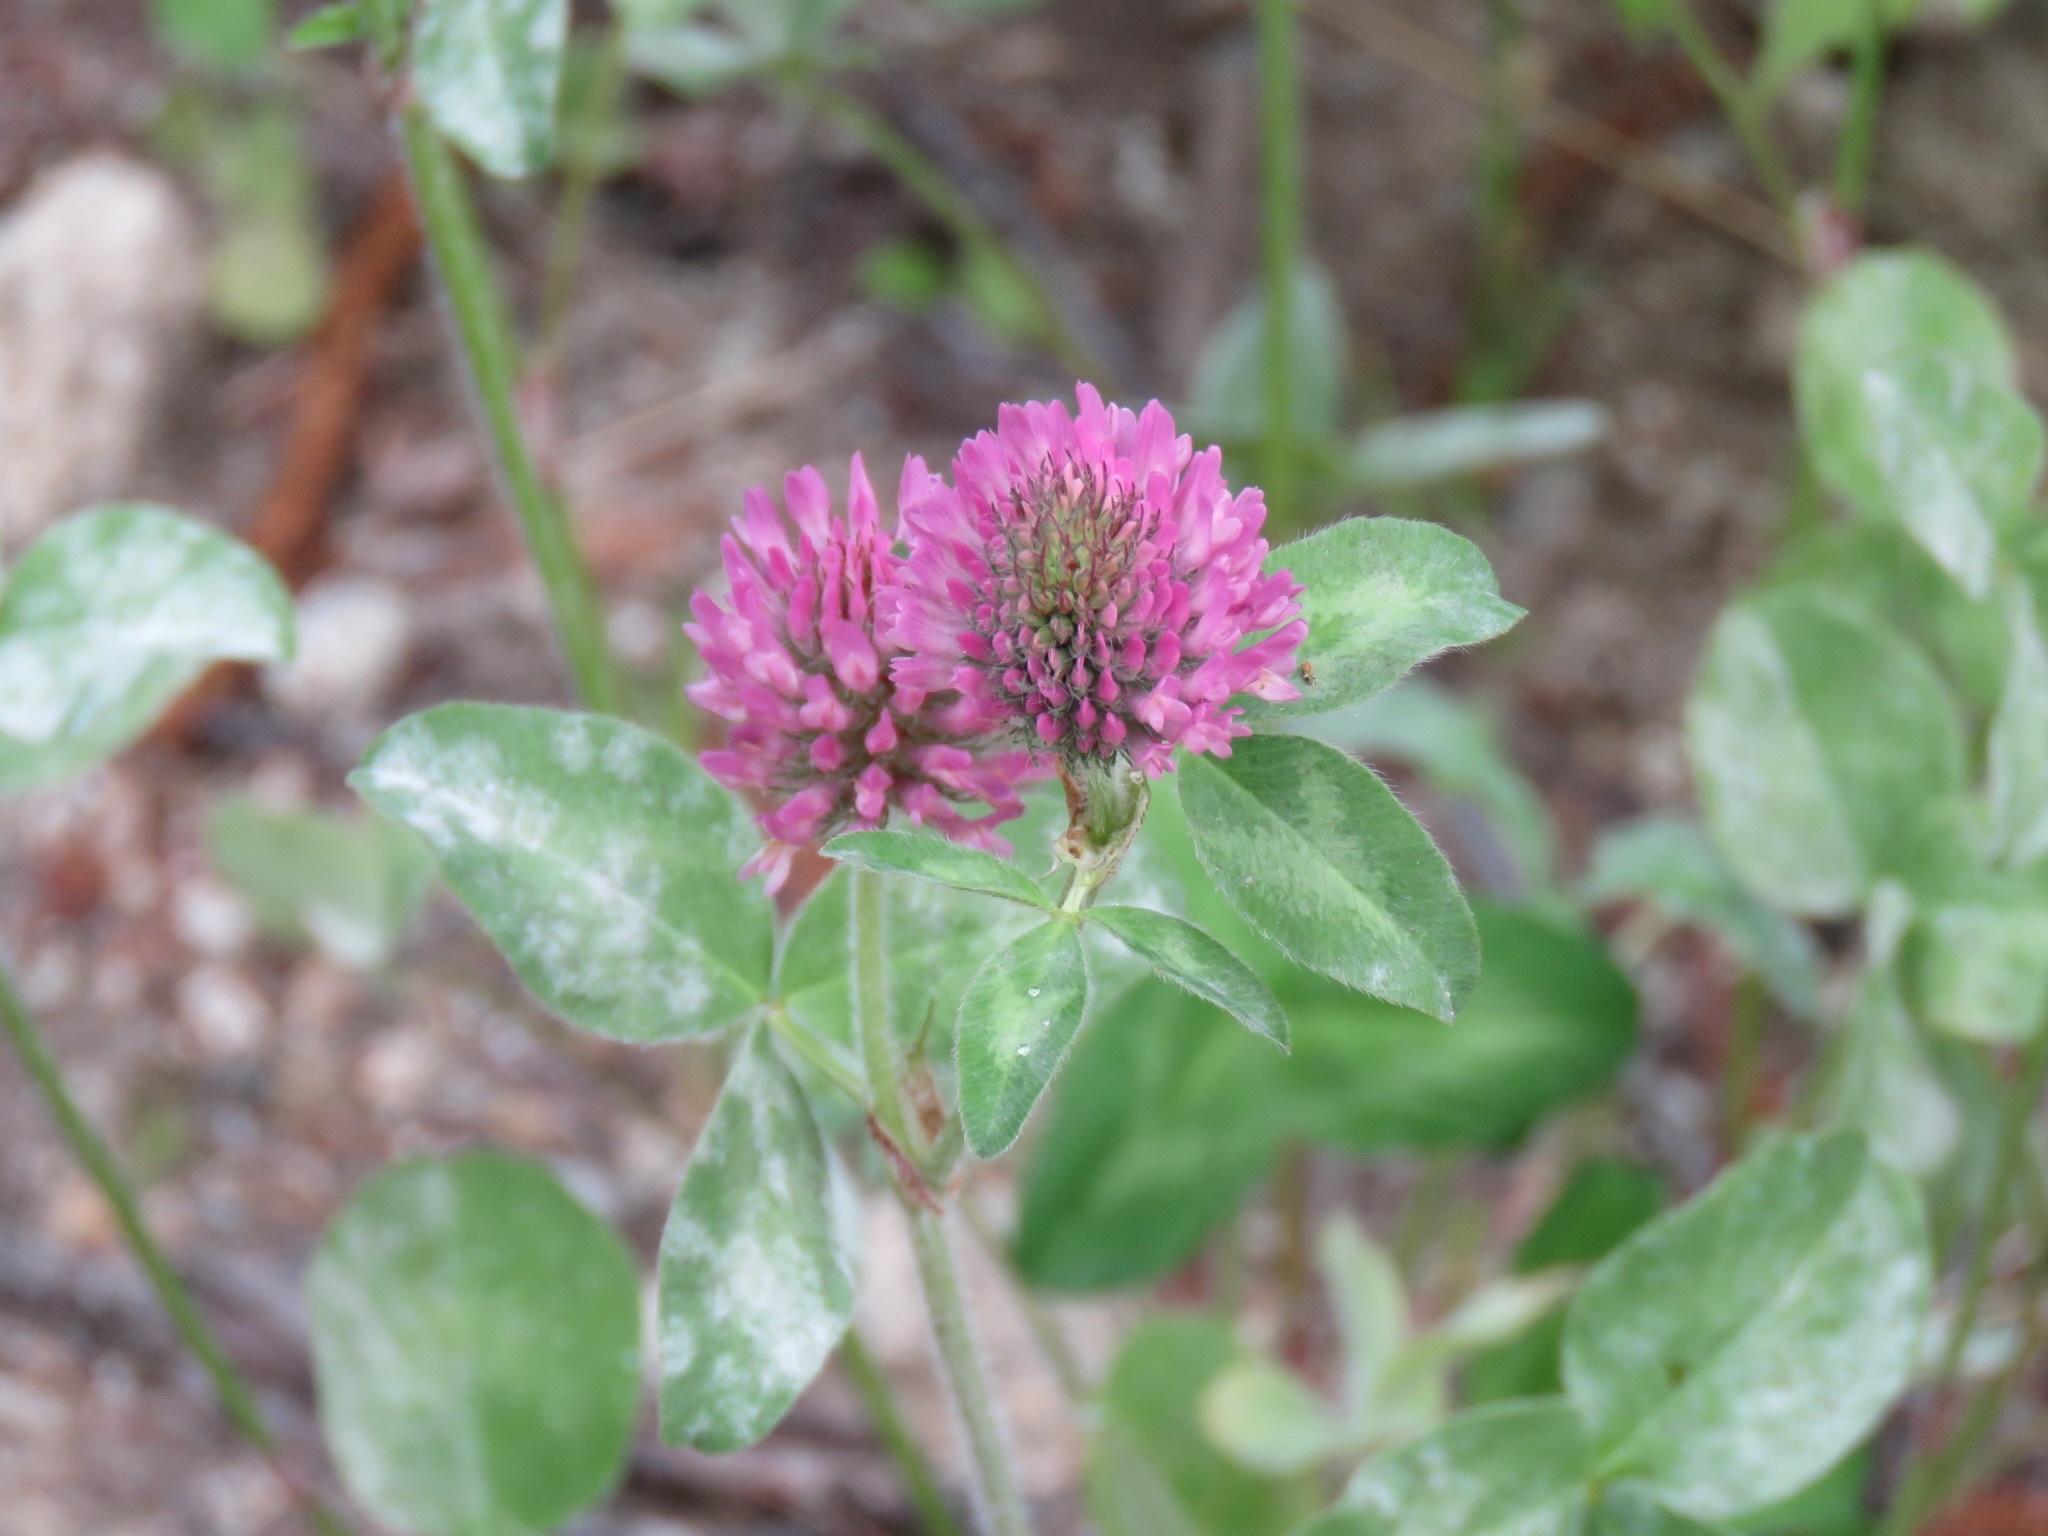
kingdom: Plantae
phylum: Tracheophyta
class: Magnoliopsida
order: Fabales
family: Fabaceae
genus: Trifolium
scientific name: Trifolium pratense
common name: Red clover
